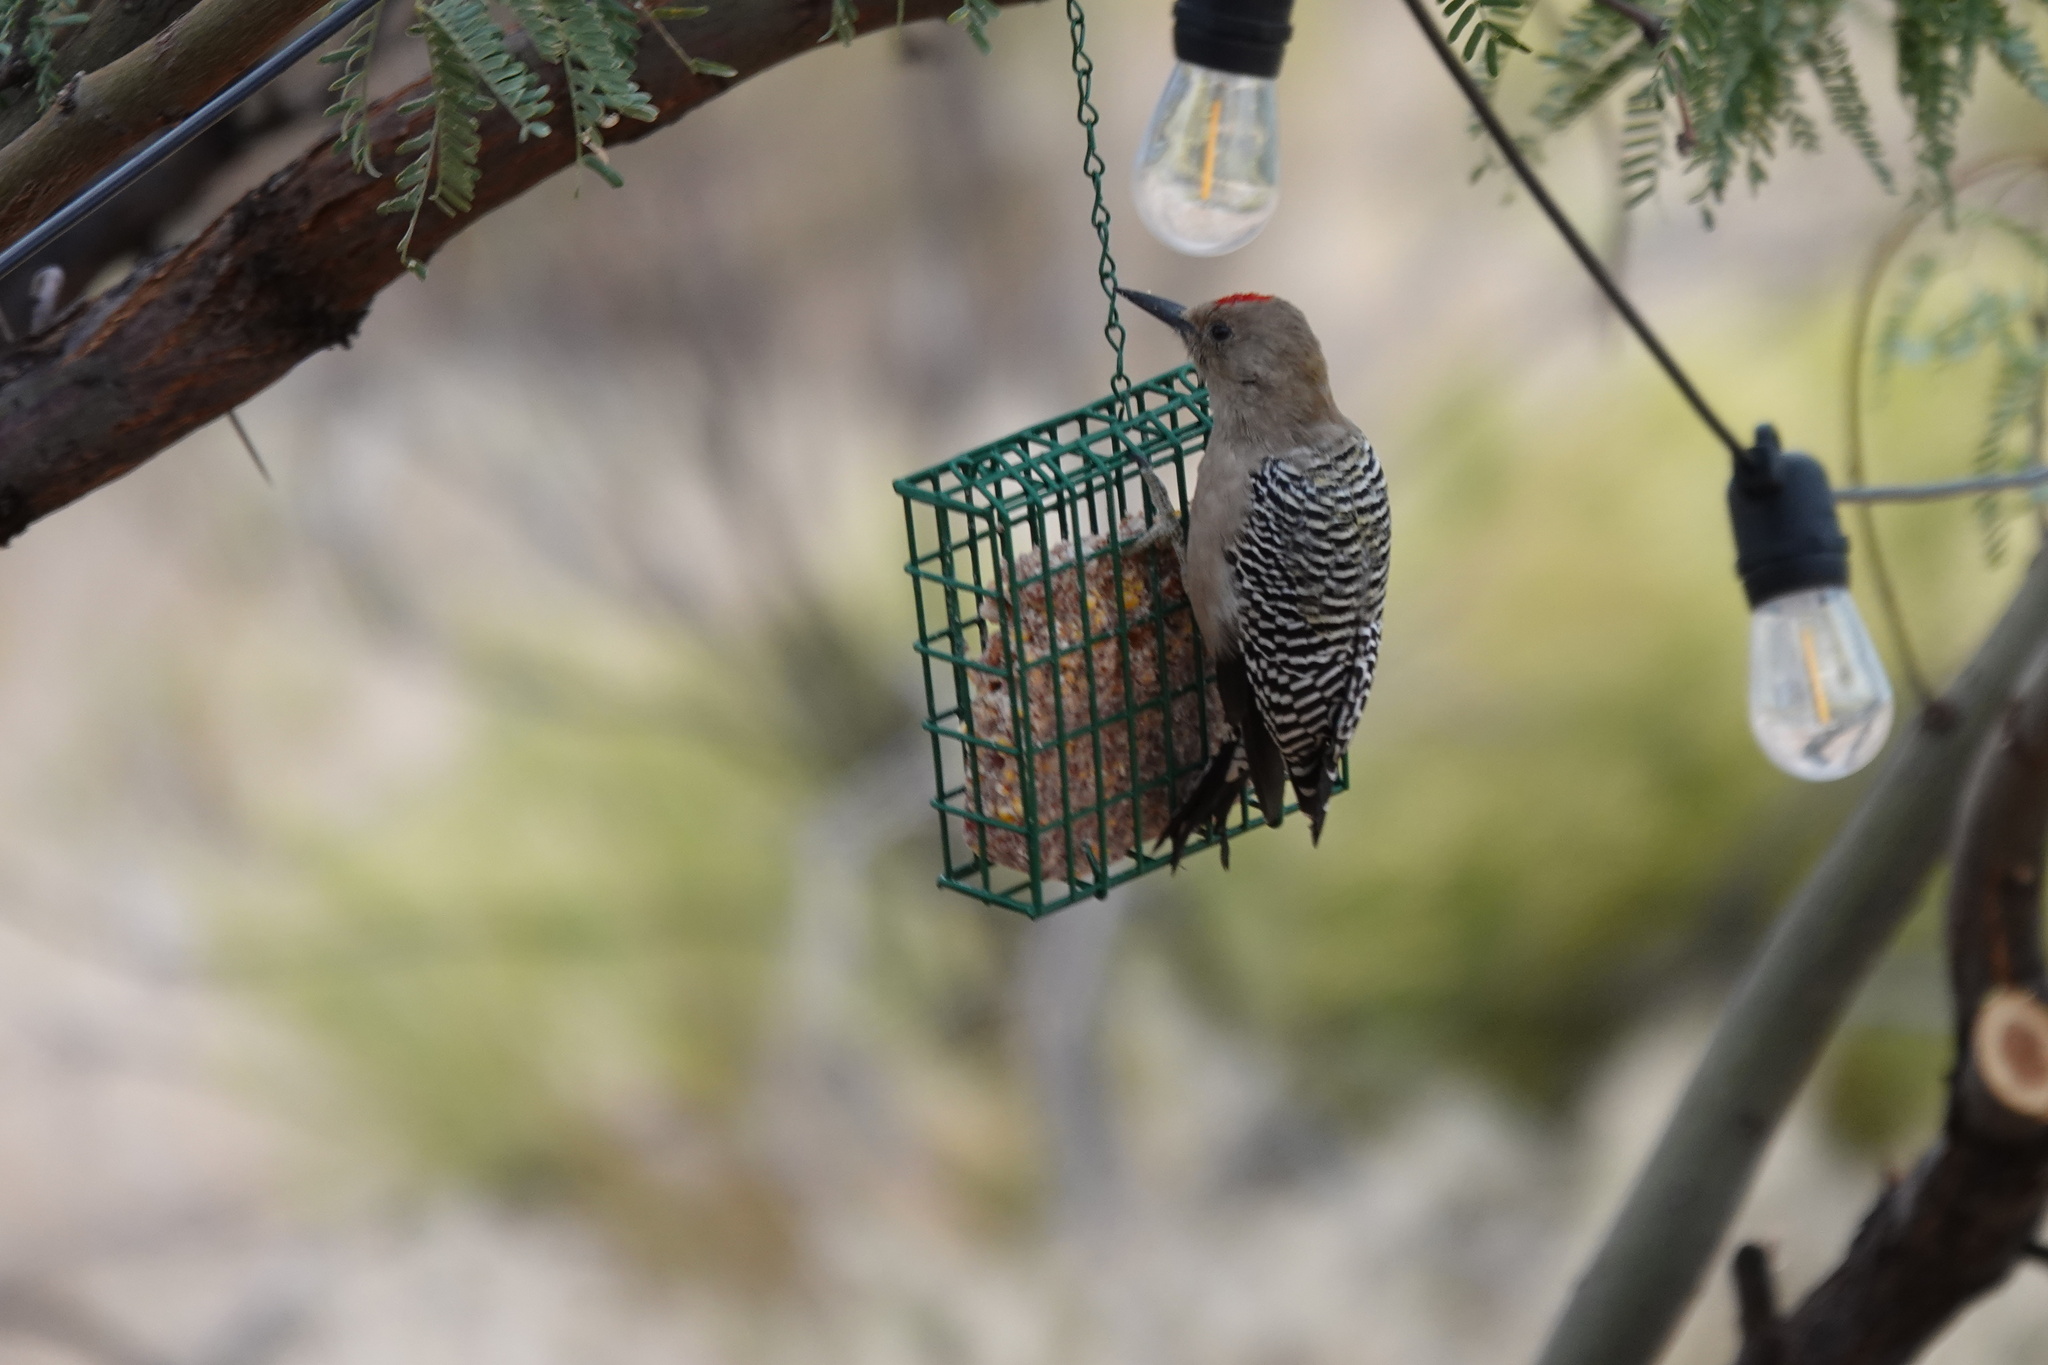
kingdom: Animalia
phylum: Chordata
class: Aves
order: Piciformes
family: Picidae
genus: Melanerpes
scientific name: Melanerpes uropygialis
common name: Gila woodpecker
